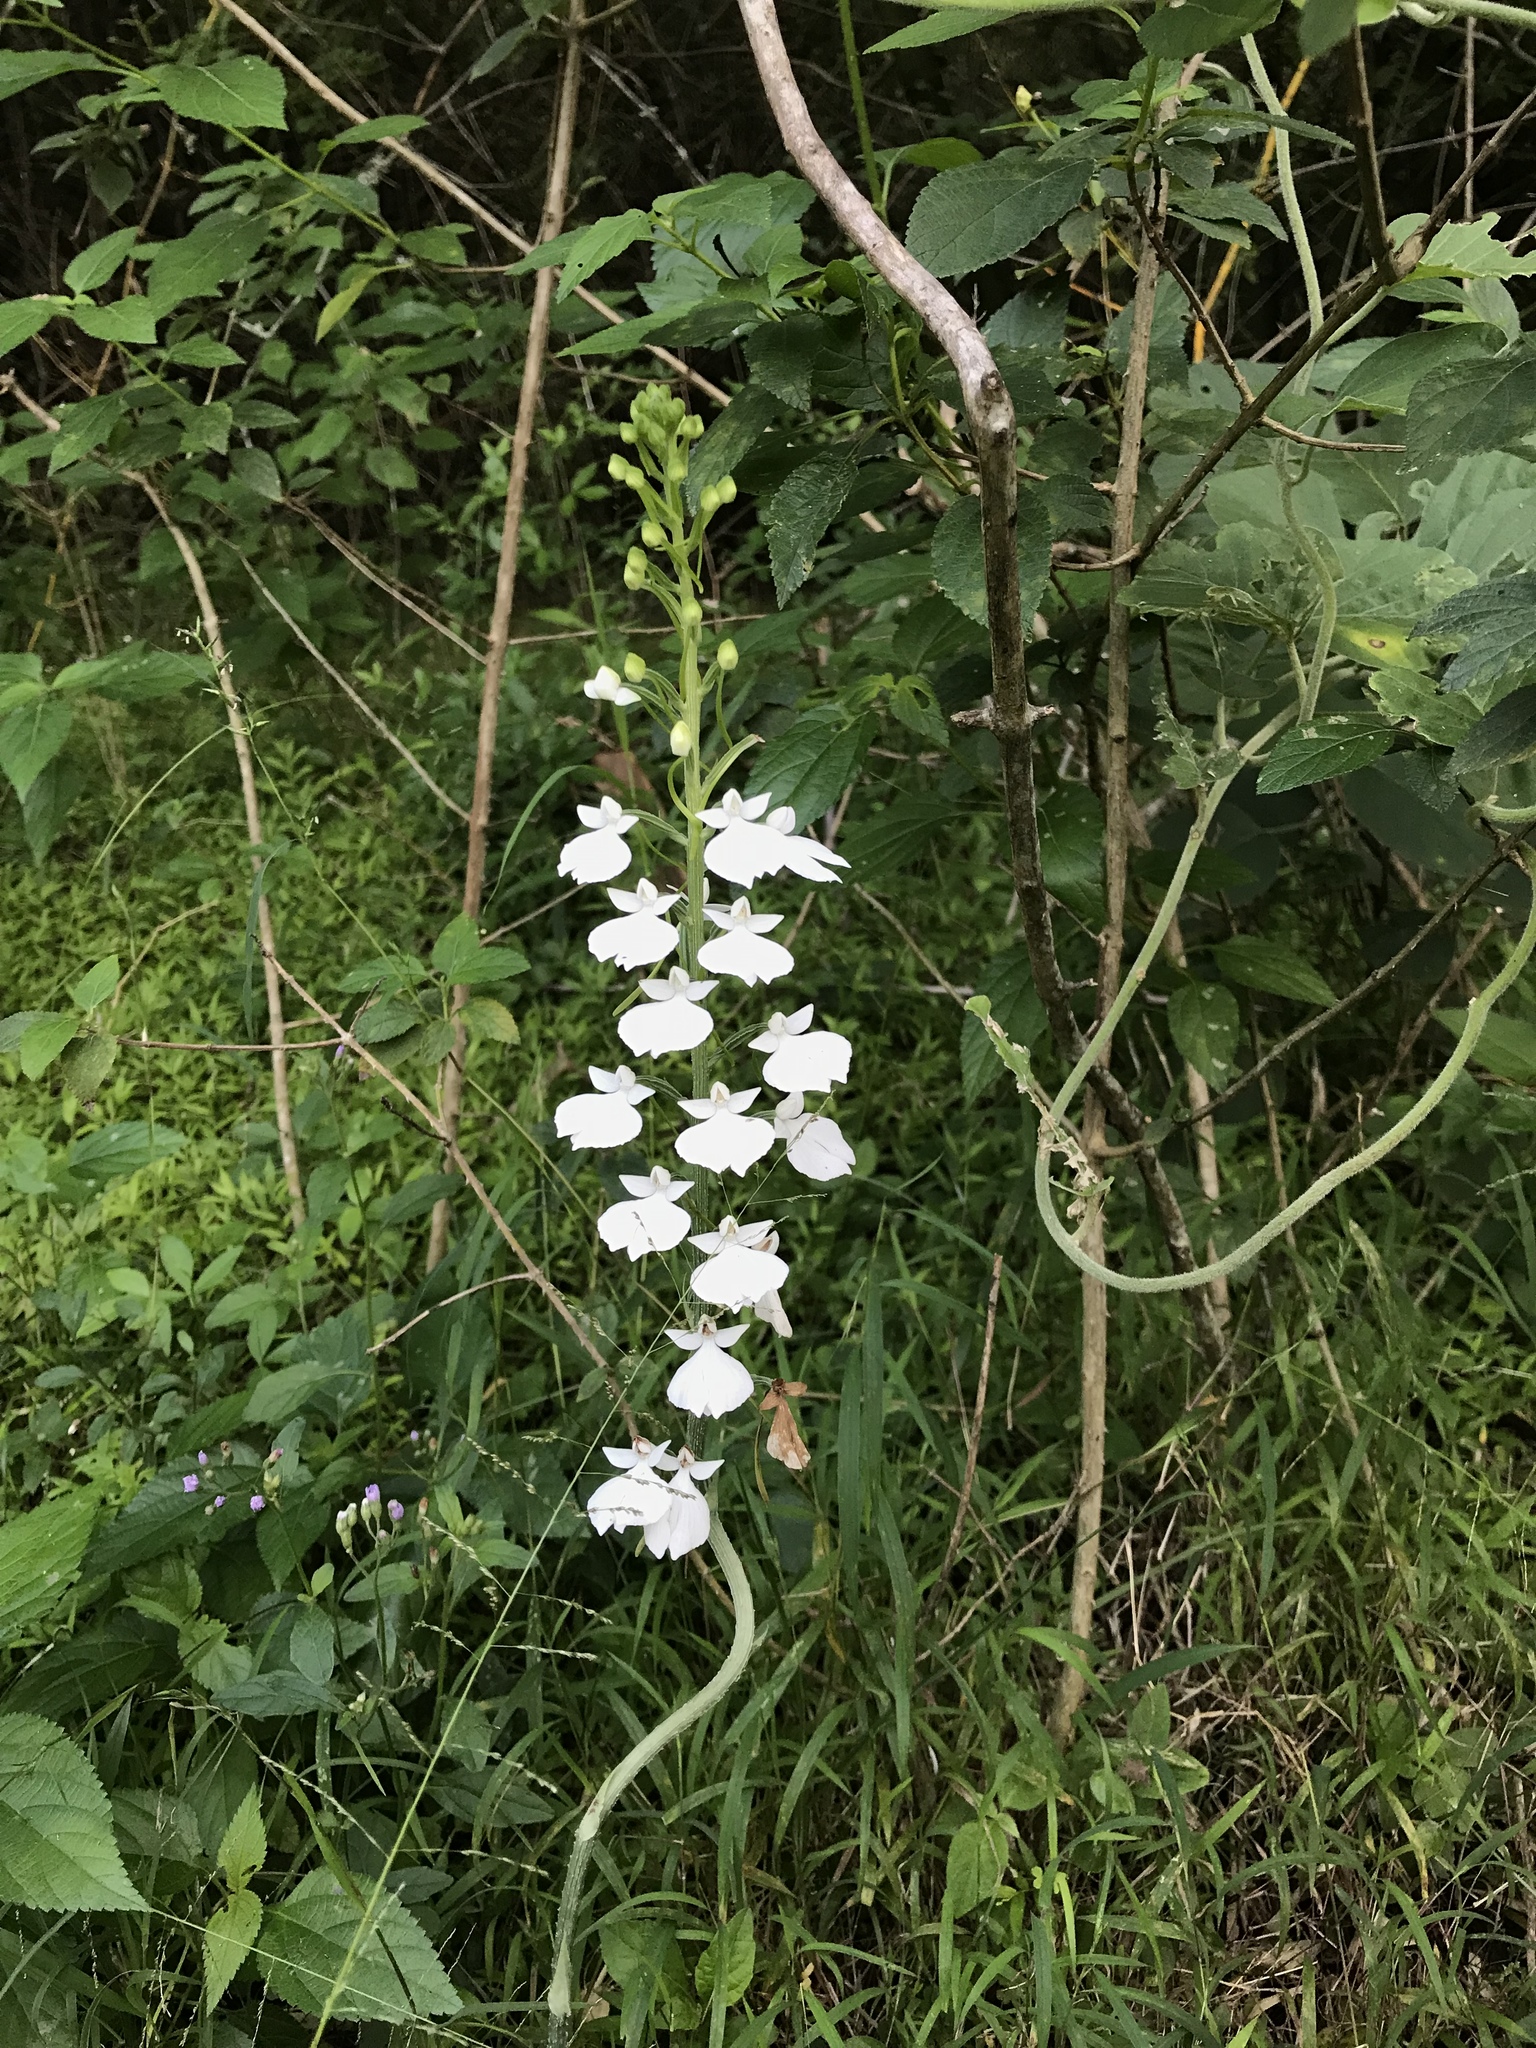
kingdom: Plantae
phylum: Tracheophyta
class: Liliopsida
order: Asparagales
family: Orchidaceae
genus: Habenaria
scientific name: Habenaria plantaginea
